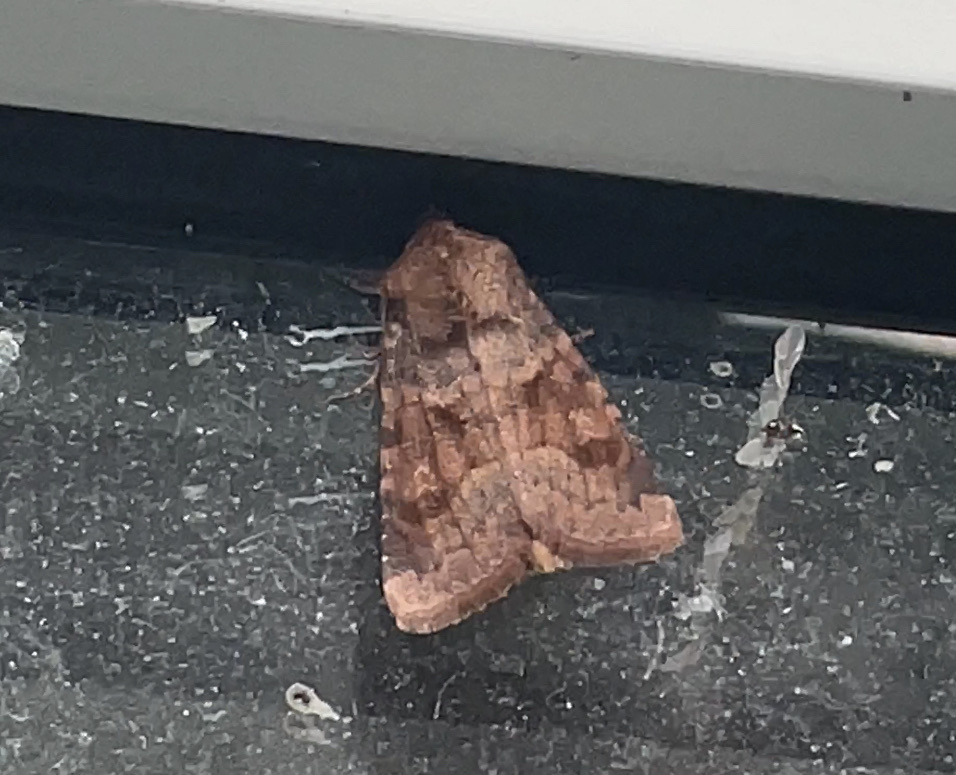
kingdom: Animalia
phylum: Arthropoda
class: Insecta
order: Lepidoptera
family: Noctuidae
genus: Nephelodes
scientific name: Nephelodes minians
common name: Bronzed cutworm
